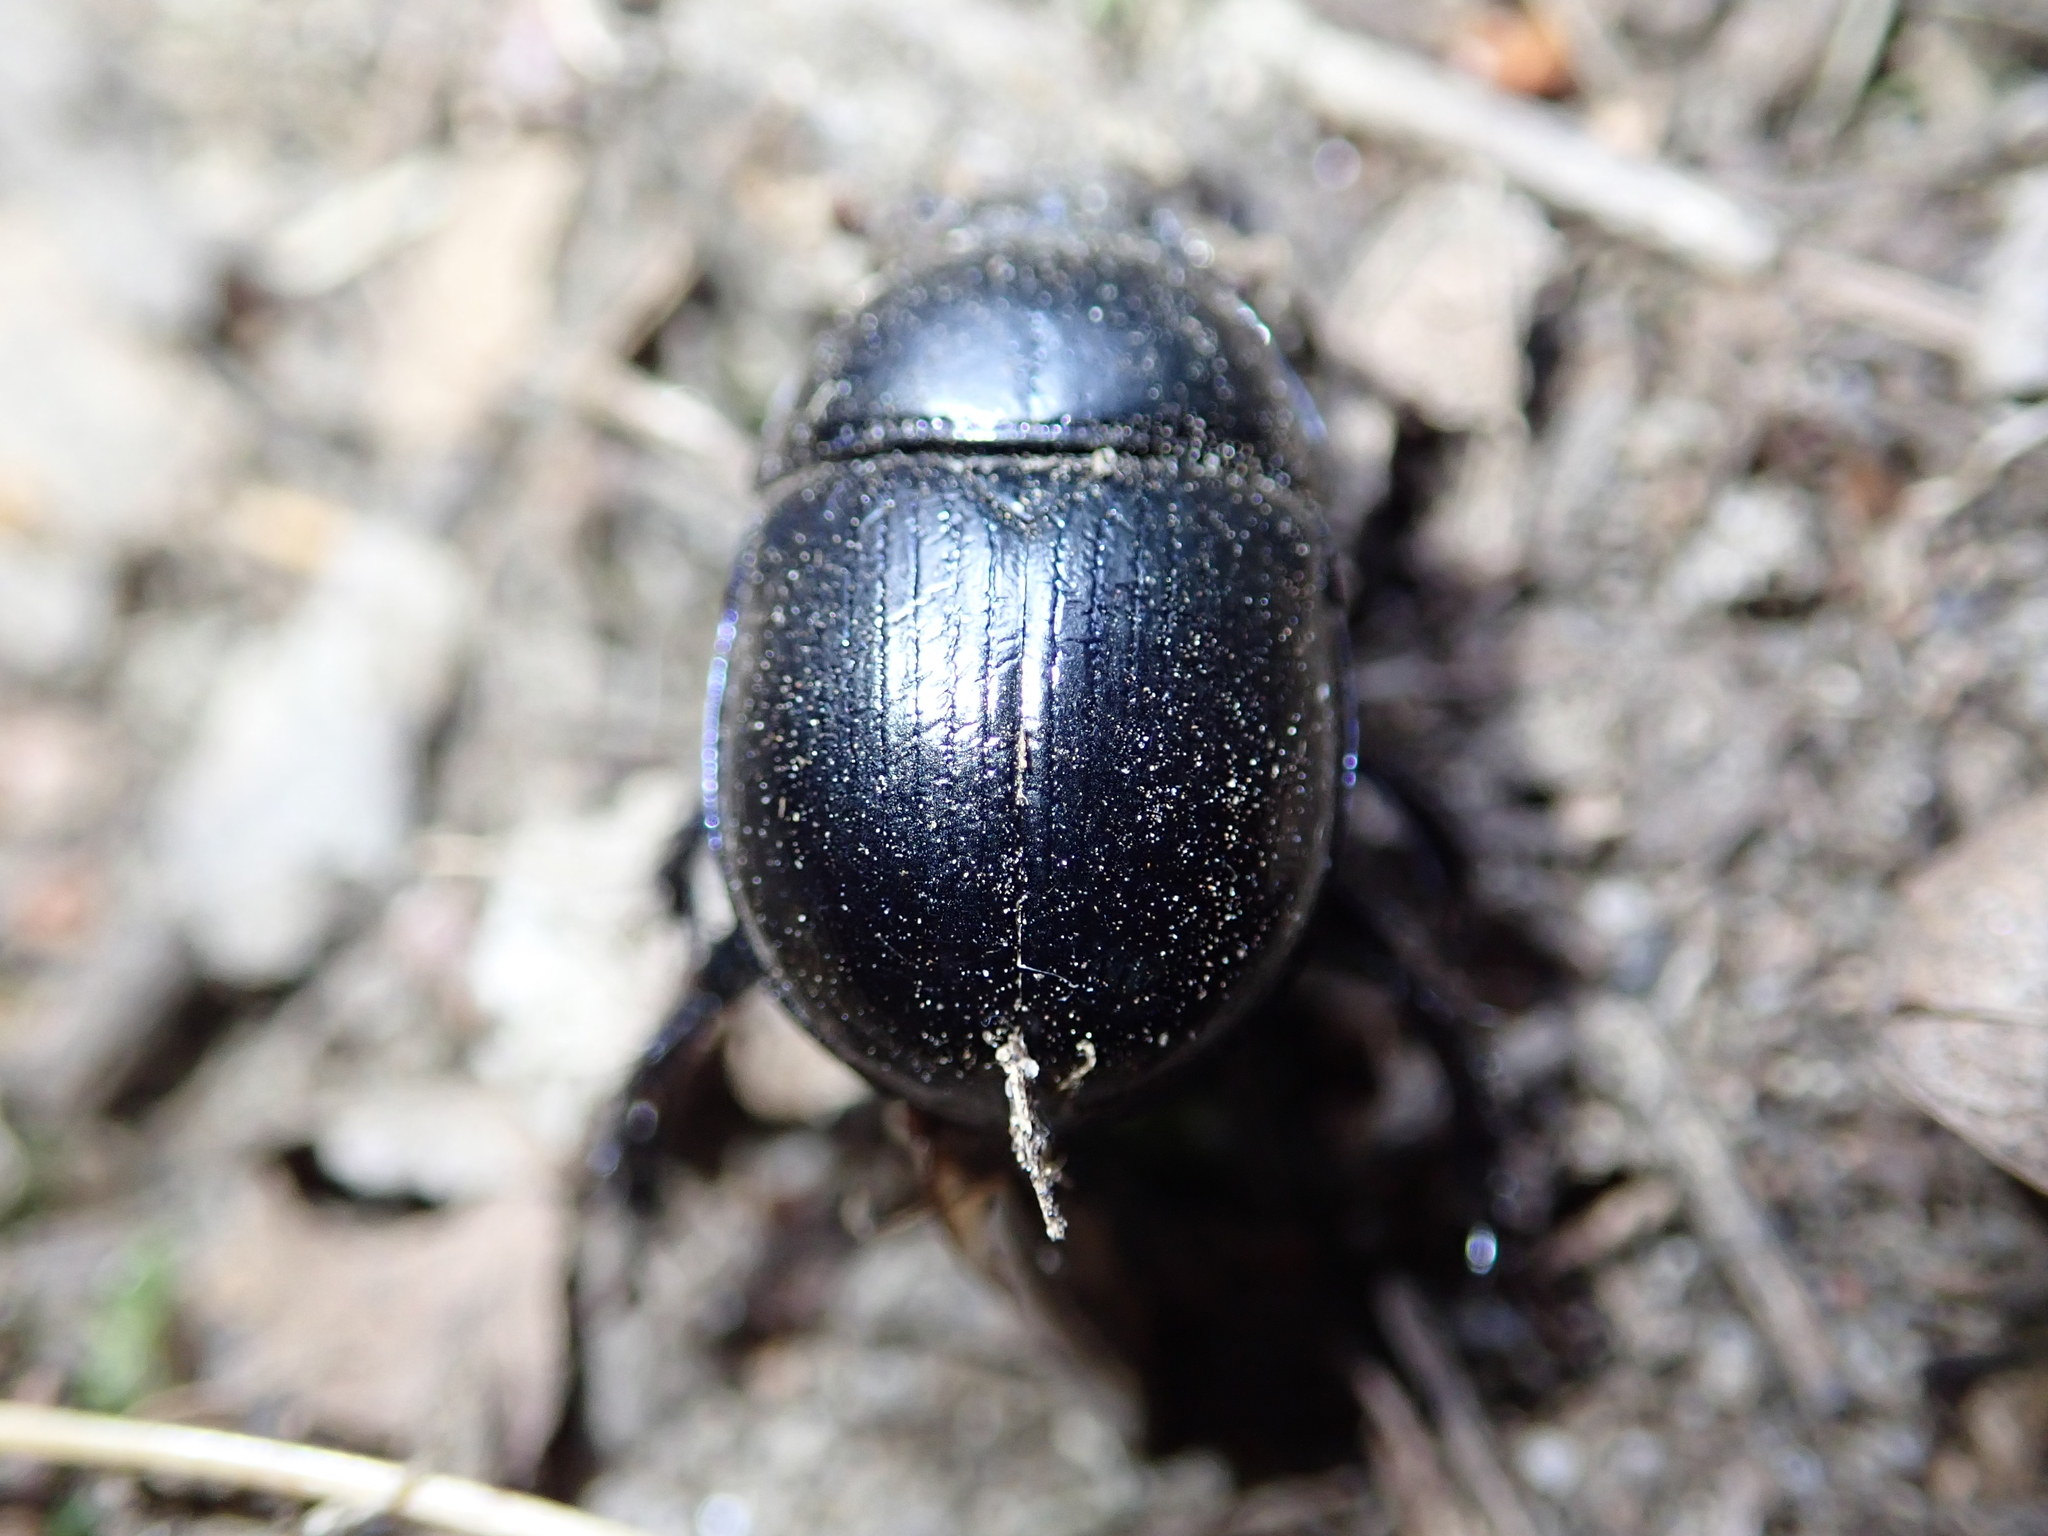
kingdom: Animalia
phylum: Arthropoda
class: Insecta
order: Coleoptera
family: Geotrupidae
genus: Anoplotrupes
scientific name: Anoplotrupes stercorosus
